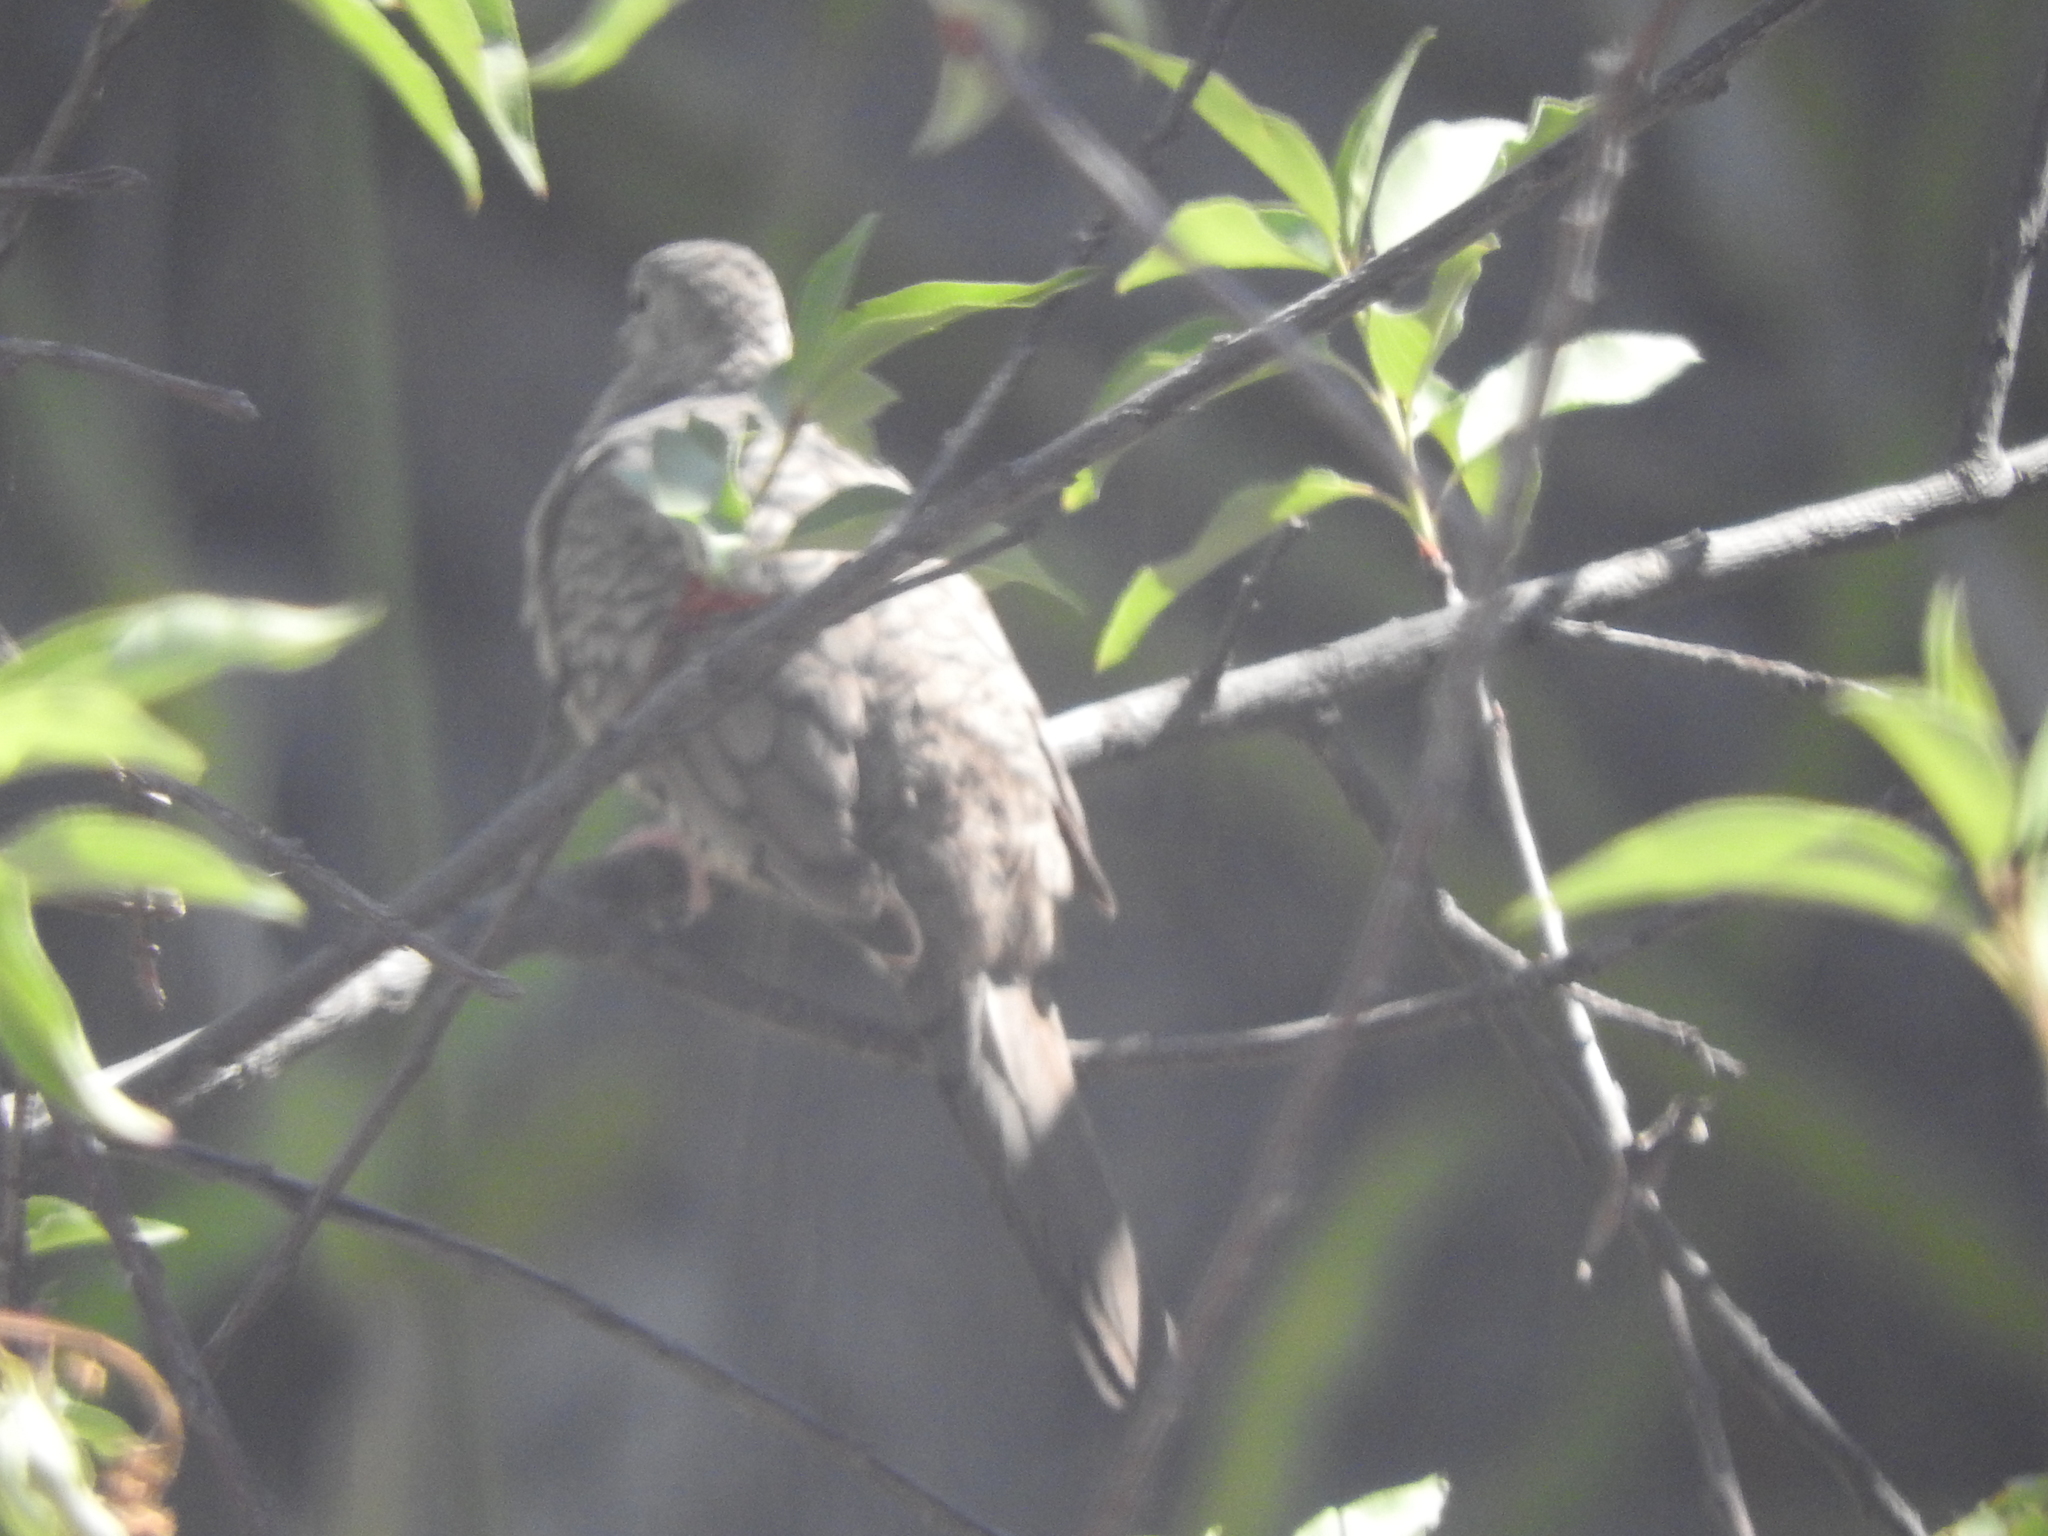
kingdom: Animalia
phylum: Chordata
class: Aves
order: Columbiformes
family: Columbidae
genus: Columbina
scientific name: Columbina inca
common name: Inca dove
